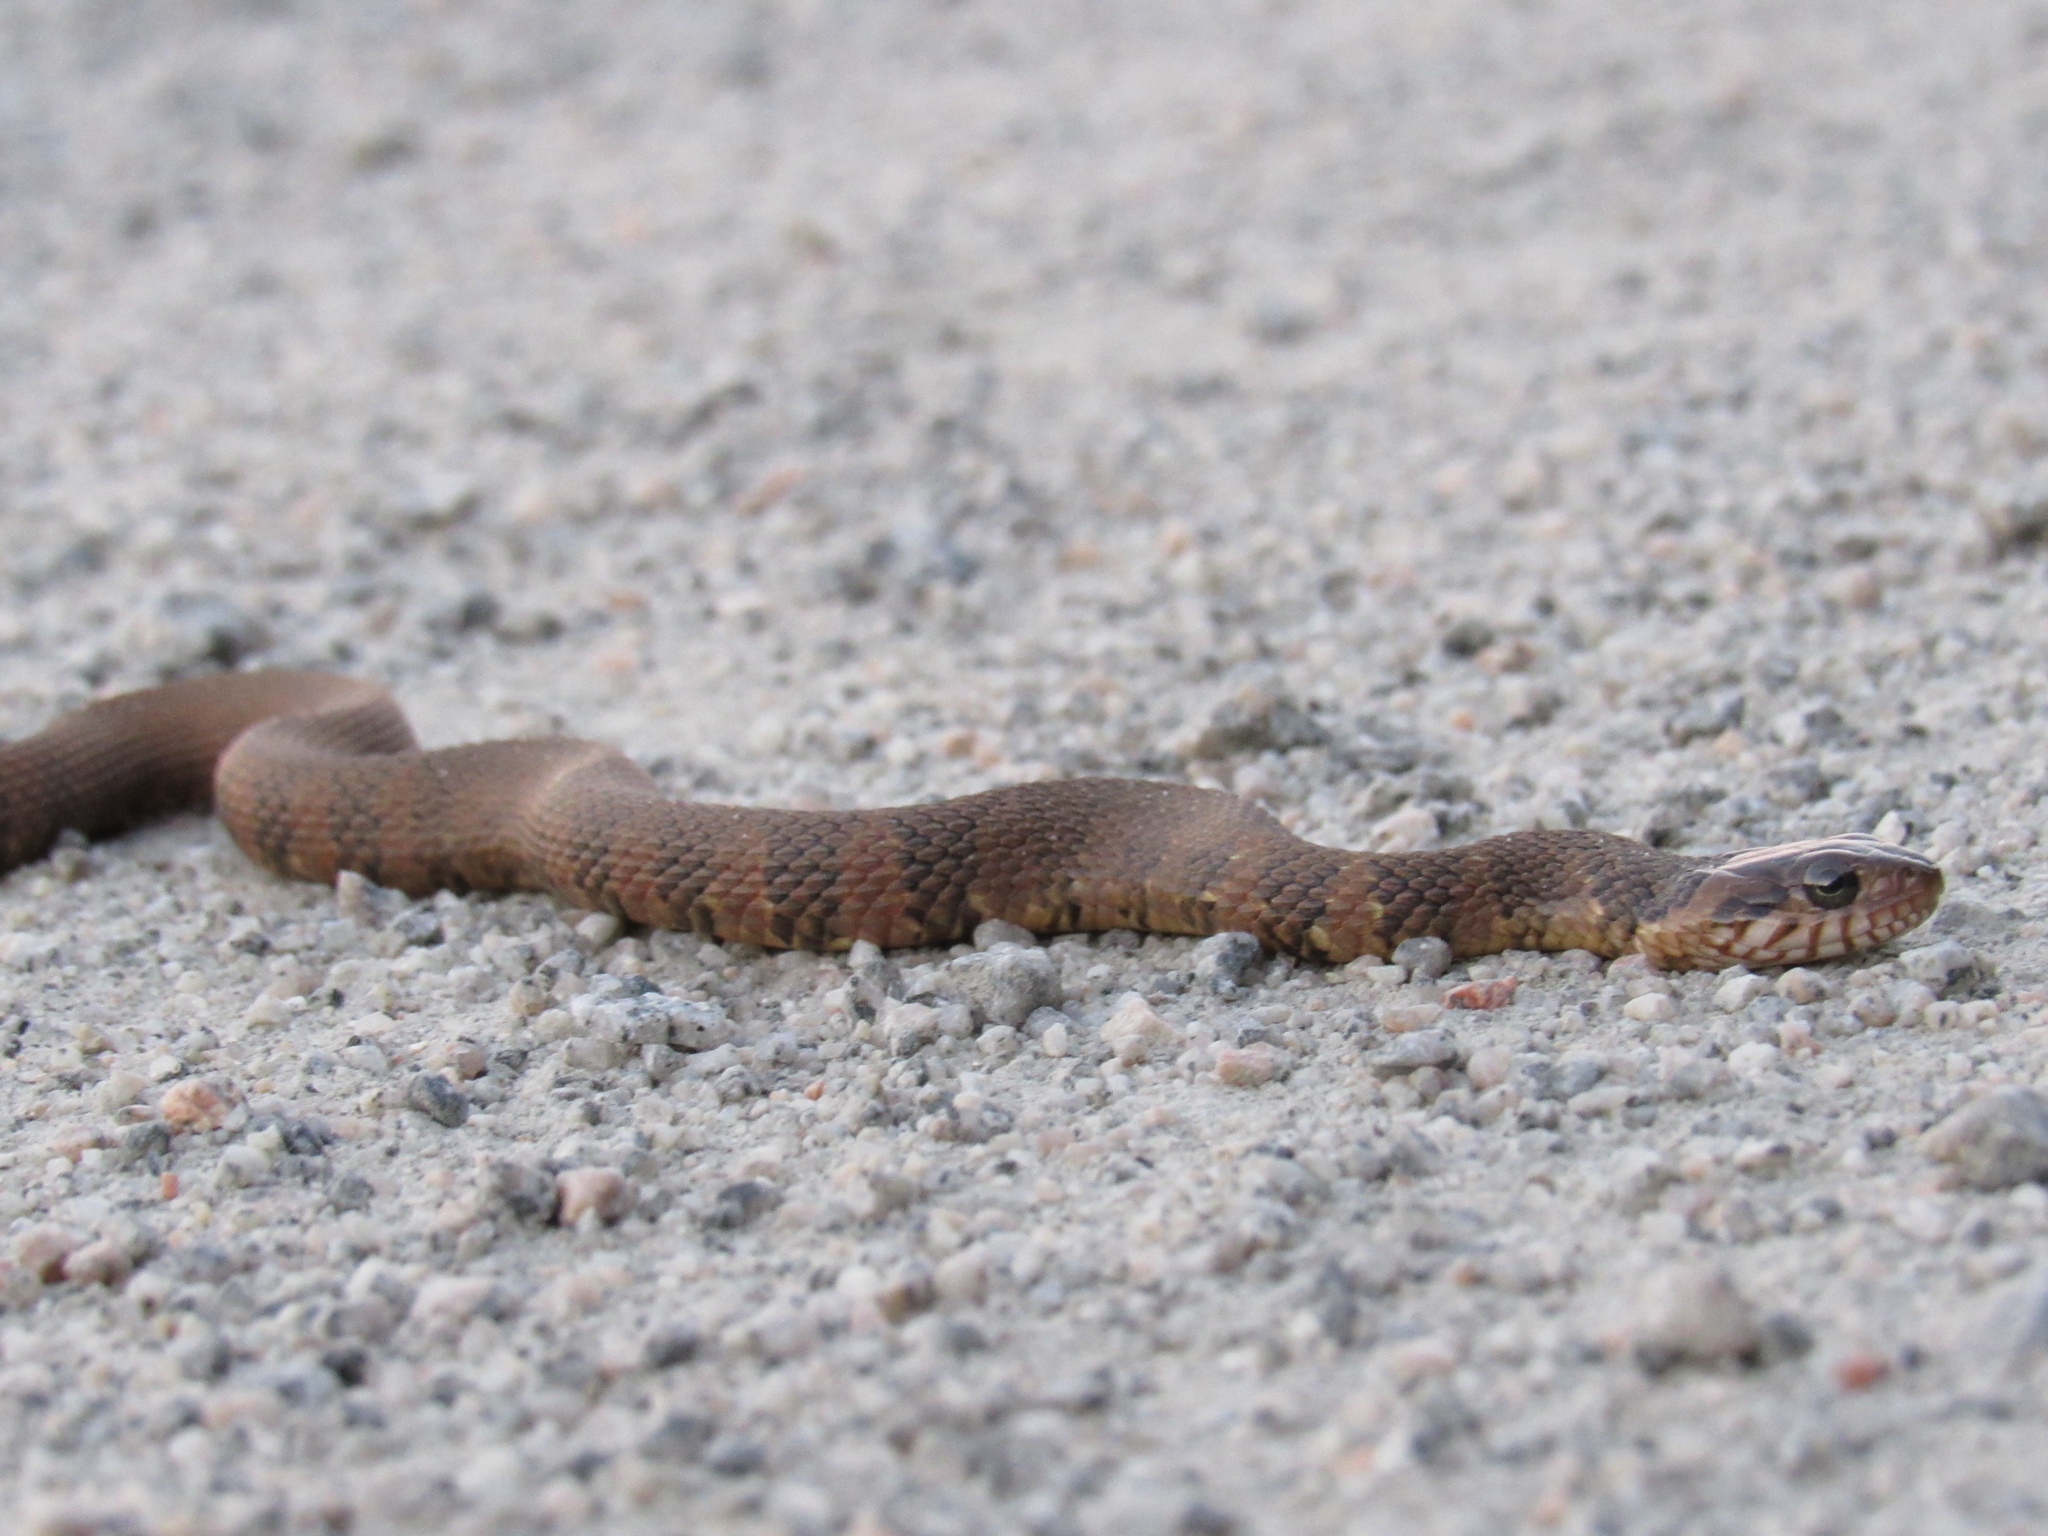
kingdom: Animalia
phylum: Chordata
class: Squamata
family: Colubridae
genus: Nerodia
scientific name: Nerodia fasciata
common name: Southern water snake
